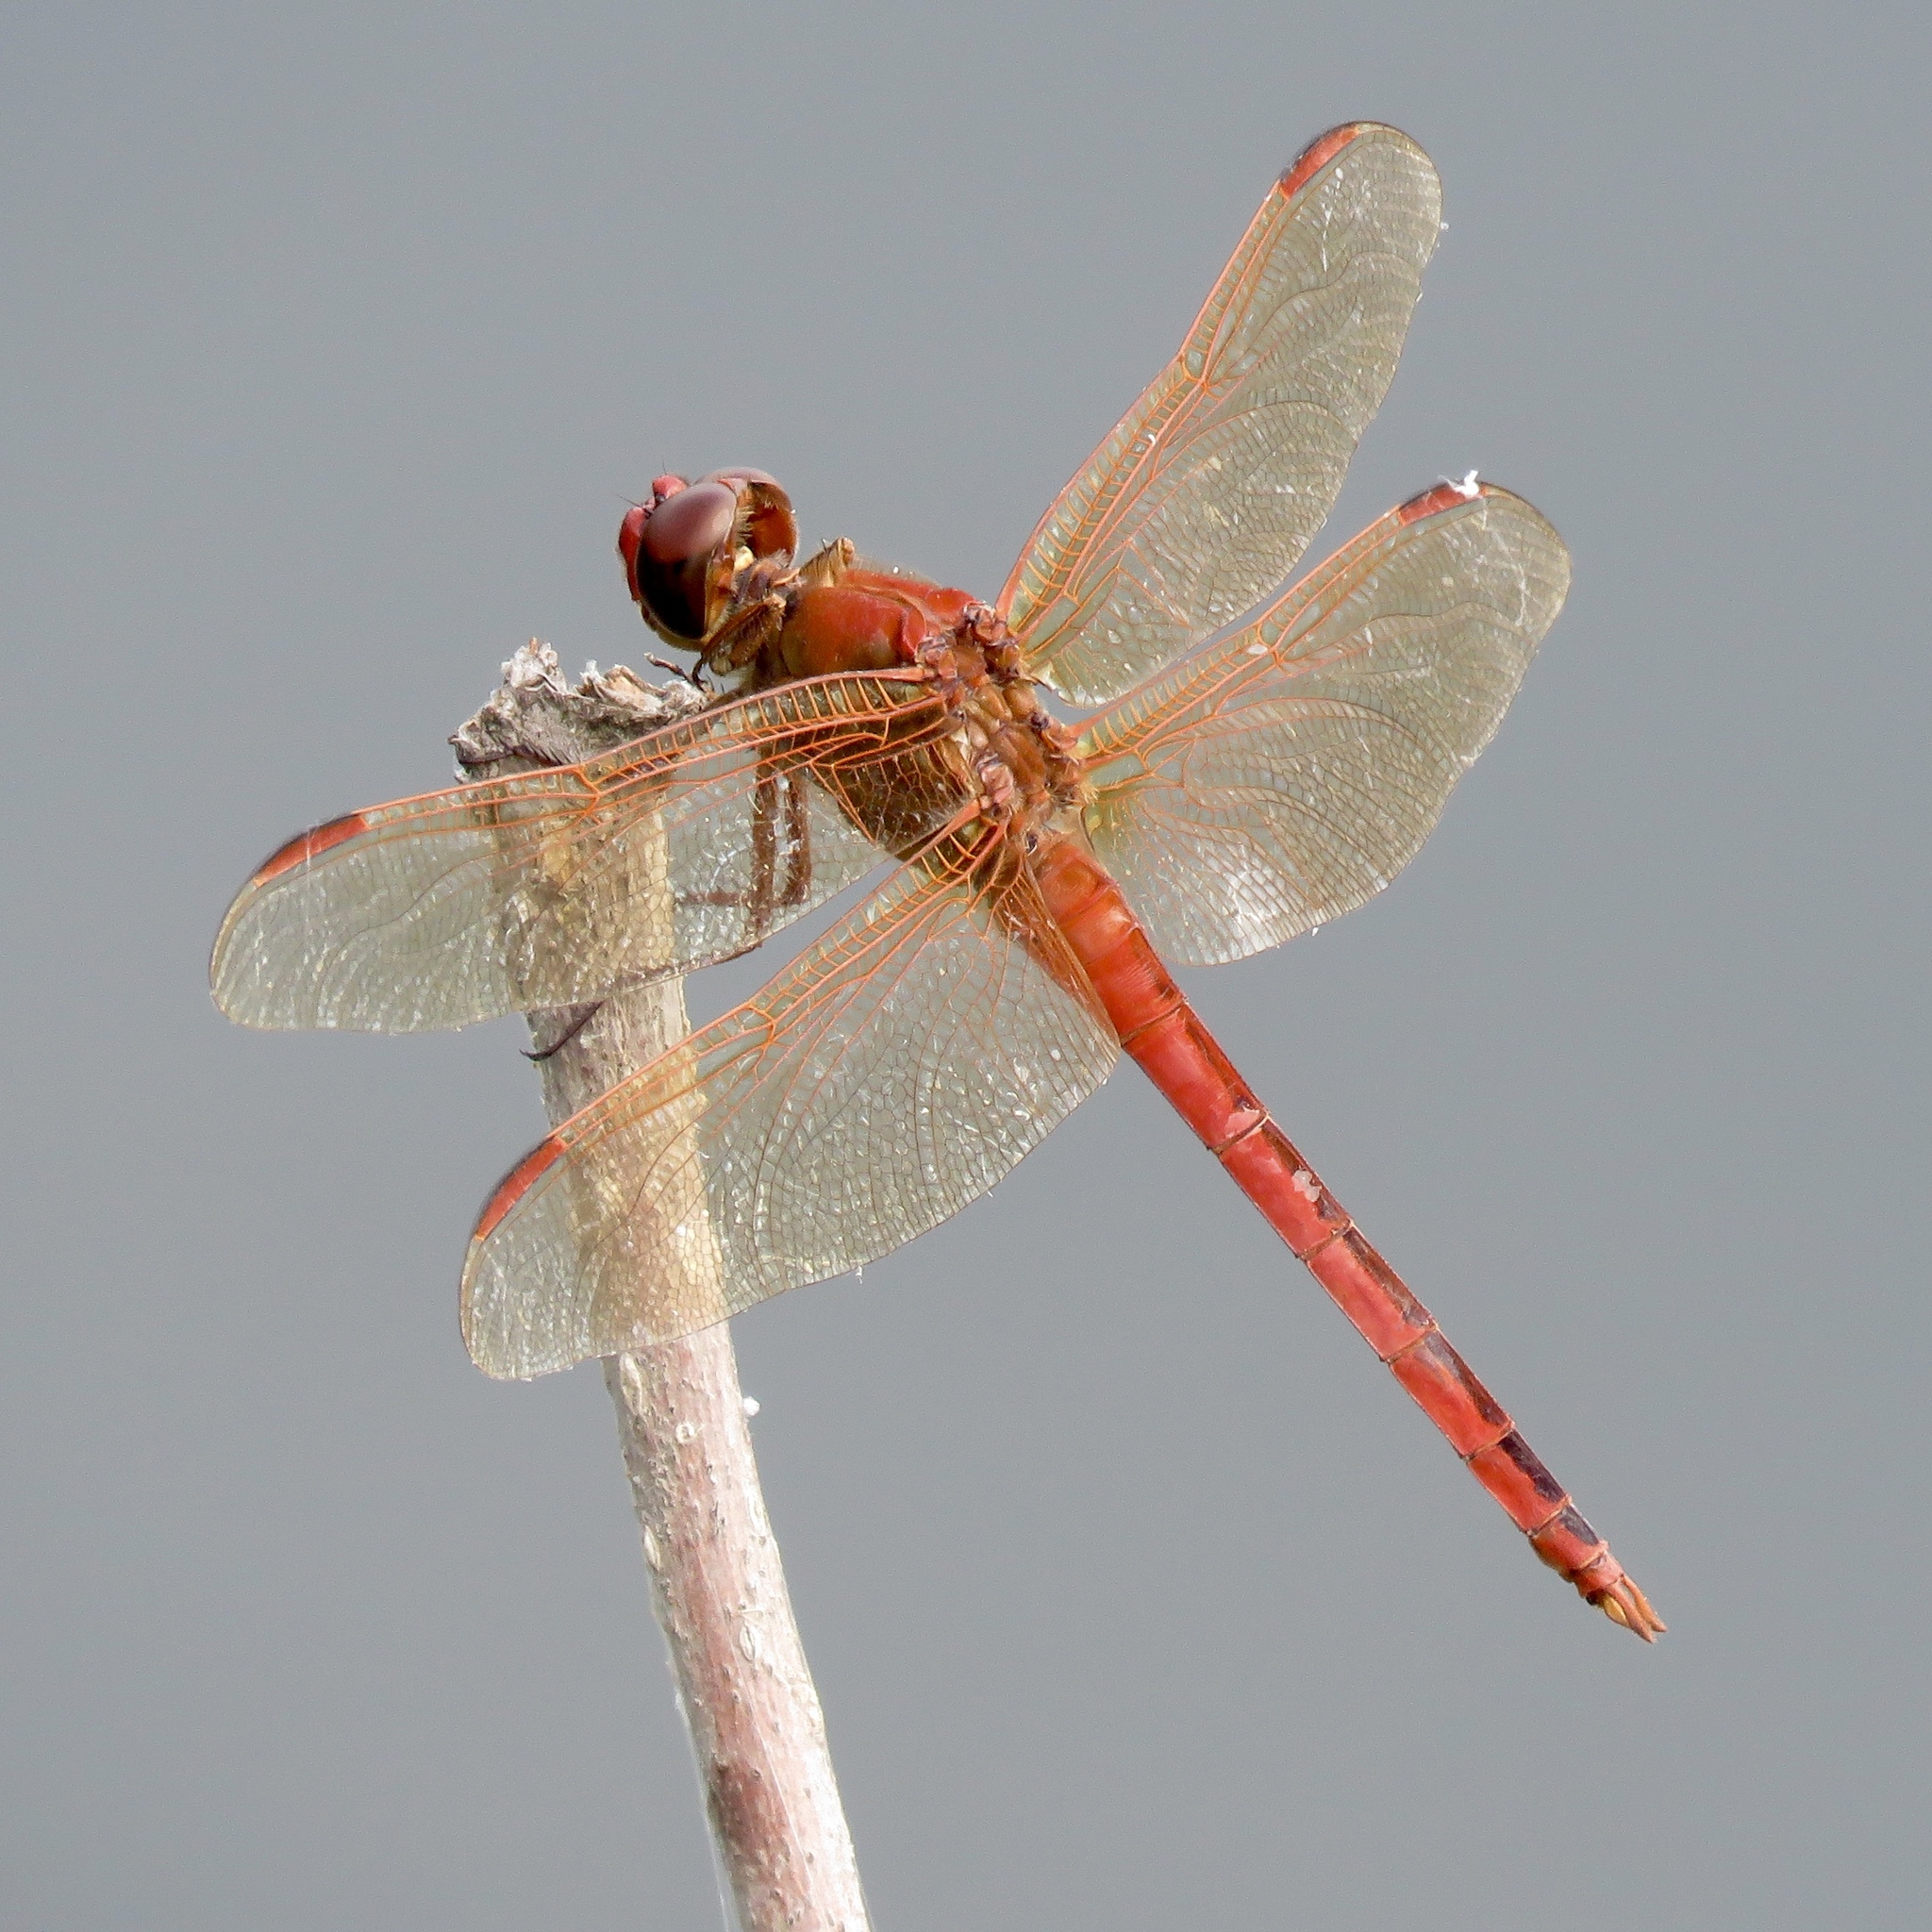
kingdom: Animalia
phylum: Arthropoda
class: Insecta
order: Odonata
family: Libellulidae
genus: Libellula
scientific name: Libellula needhami
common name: Needham's skimmer
